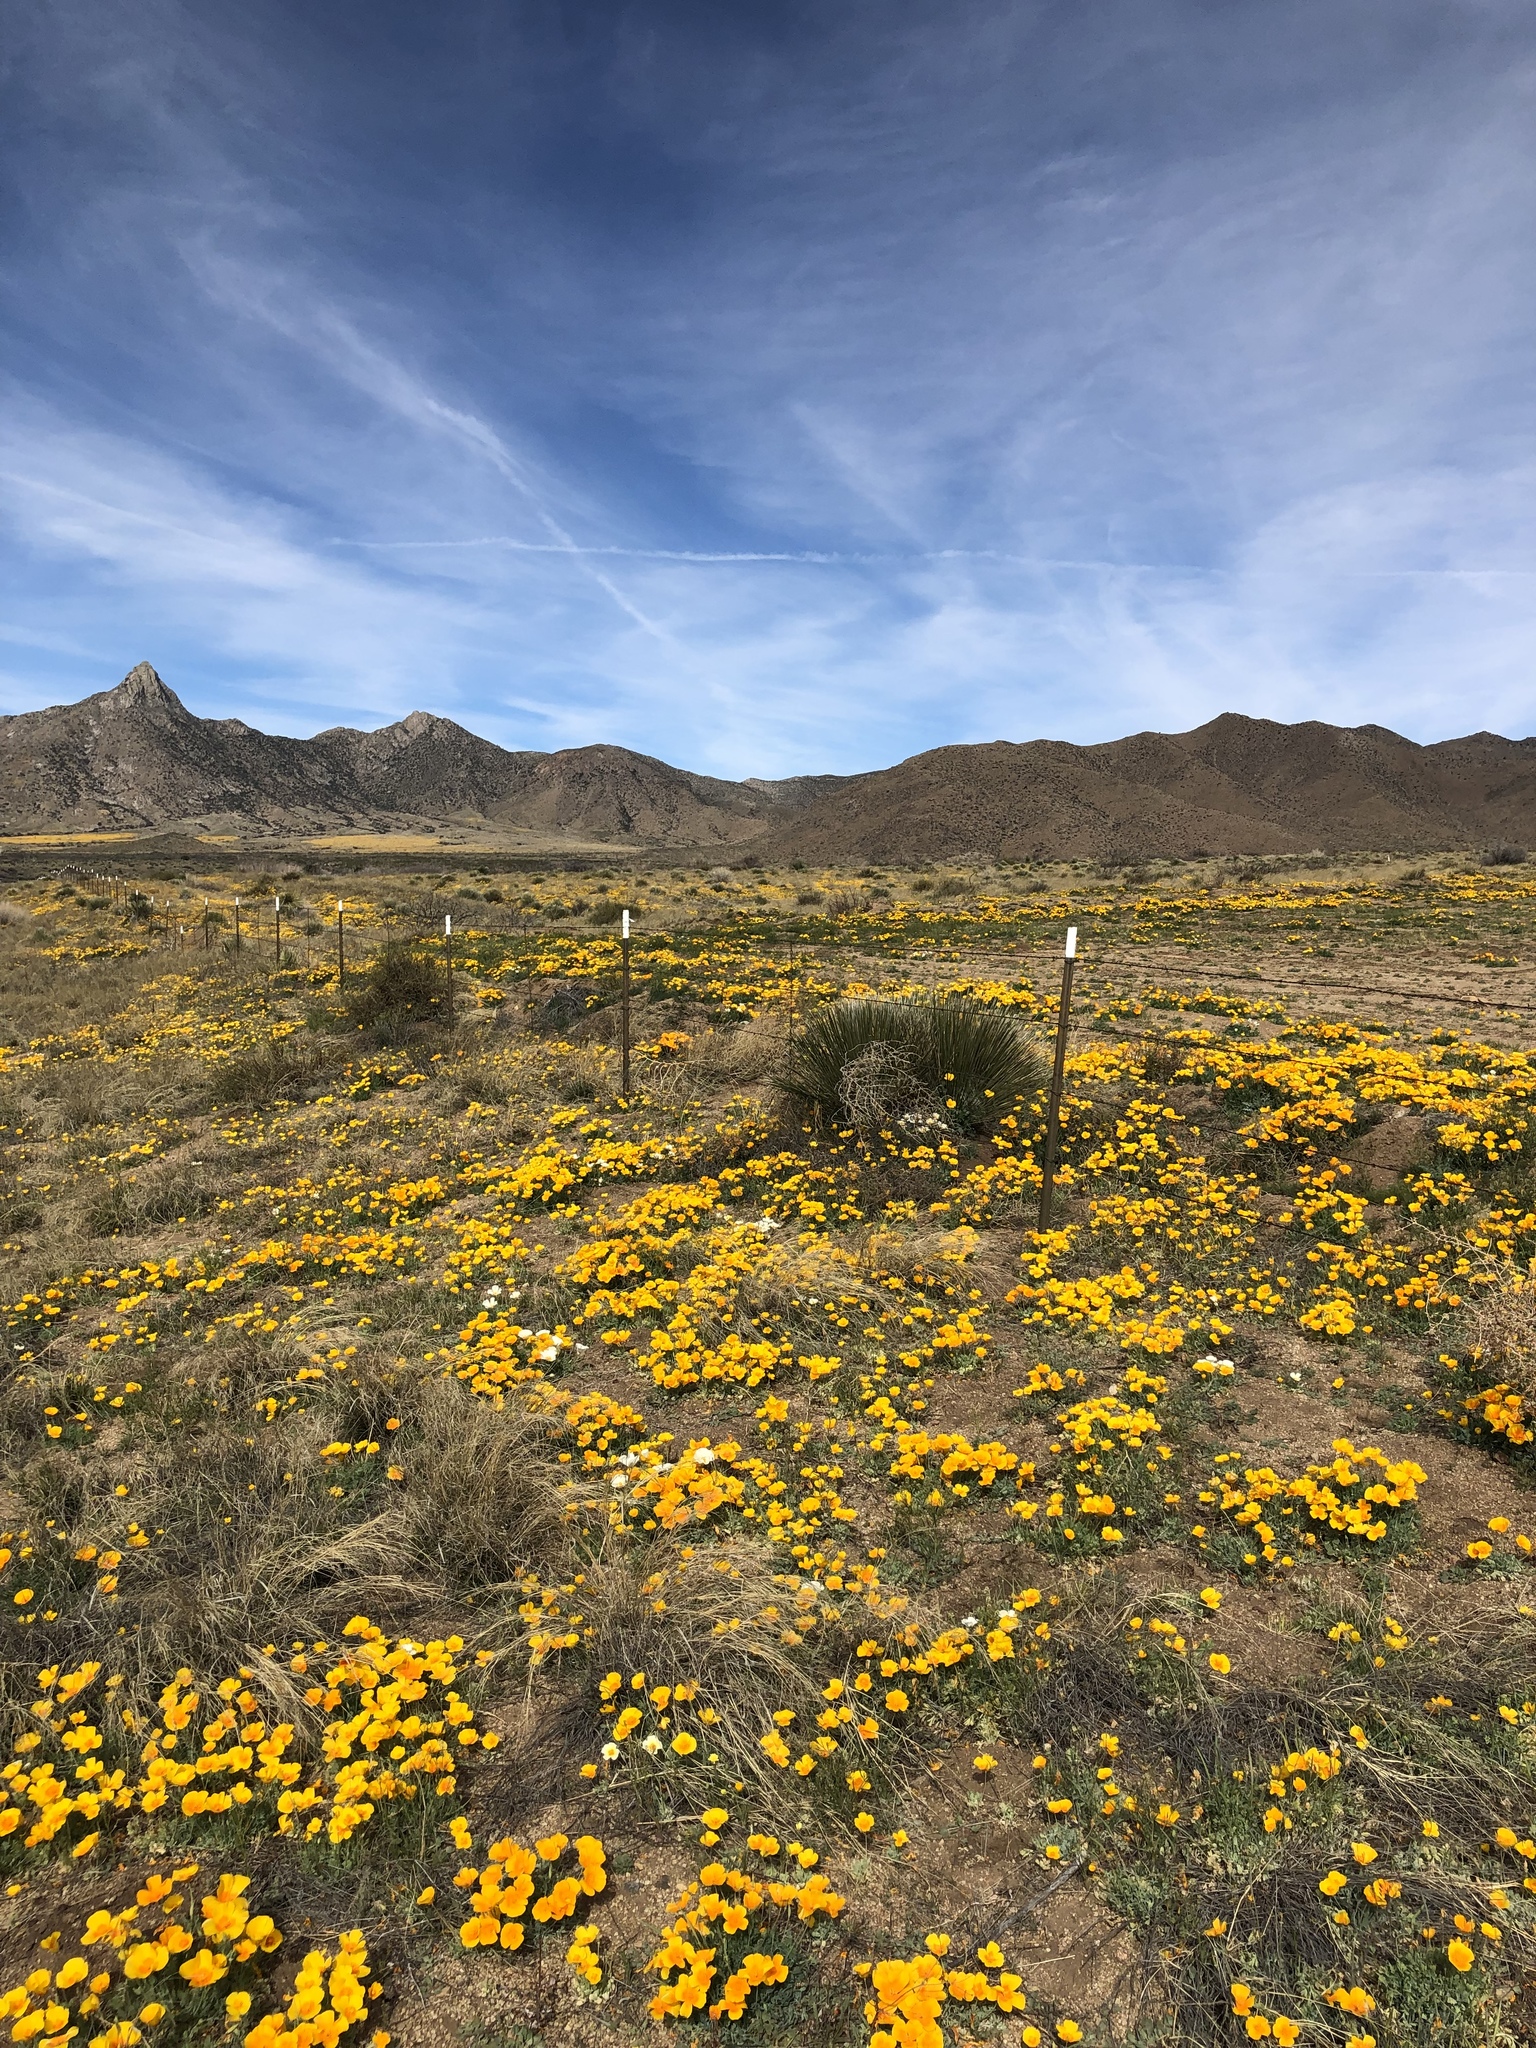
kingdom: Plantae
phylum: Tracheophyta
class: Magnoliopsida
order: Ranunculales
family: Papaveraceae
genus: Eschscholzia
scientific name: Eschscholzia californica
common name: California poppy
